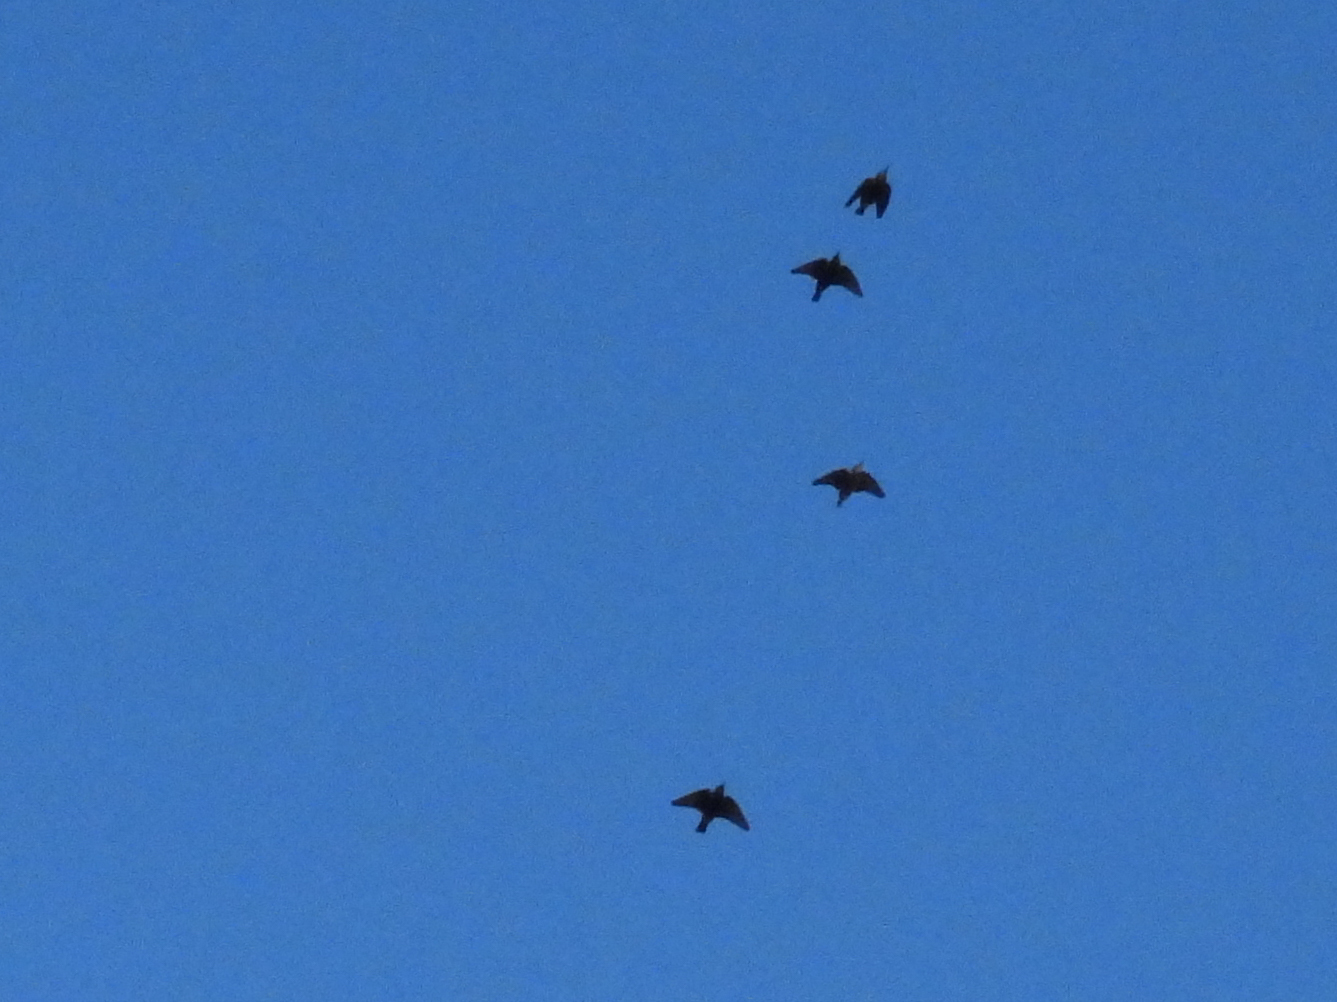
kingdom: Animalia
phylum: Chordata
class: Aves
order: Passeriformes
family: Sturnidae
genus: Sturnus
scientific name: Sturnus vulgaris
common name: Common starling
